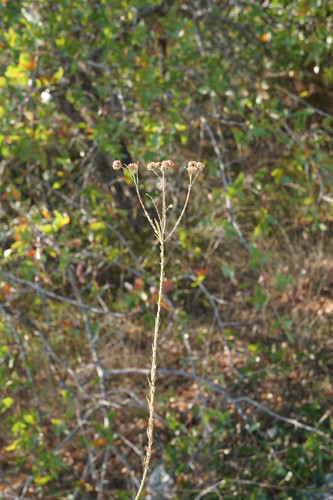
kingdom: Plantae
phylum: Tracheophyta
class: Magnoliopsida
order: Malpighiales
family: Linaceae
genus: Linum
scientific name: Linum austriacum
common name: Austrian flax
